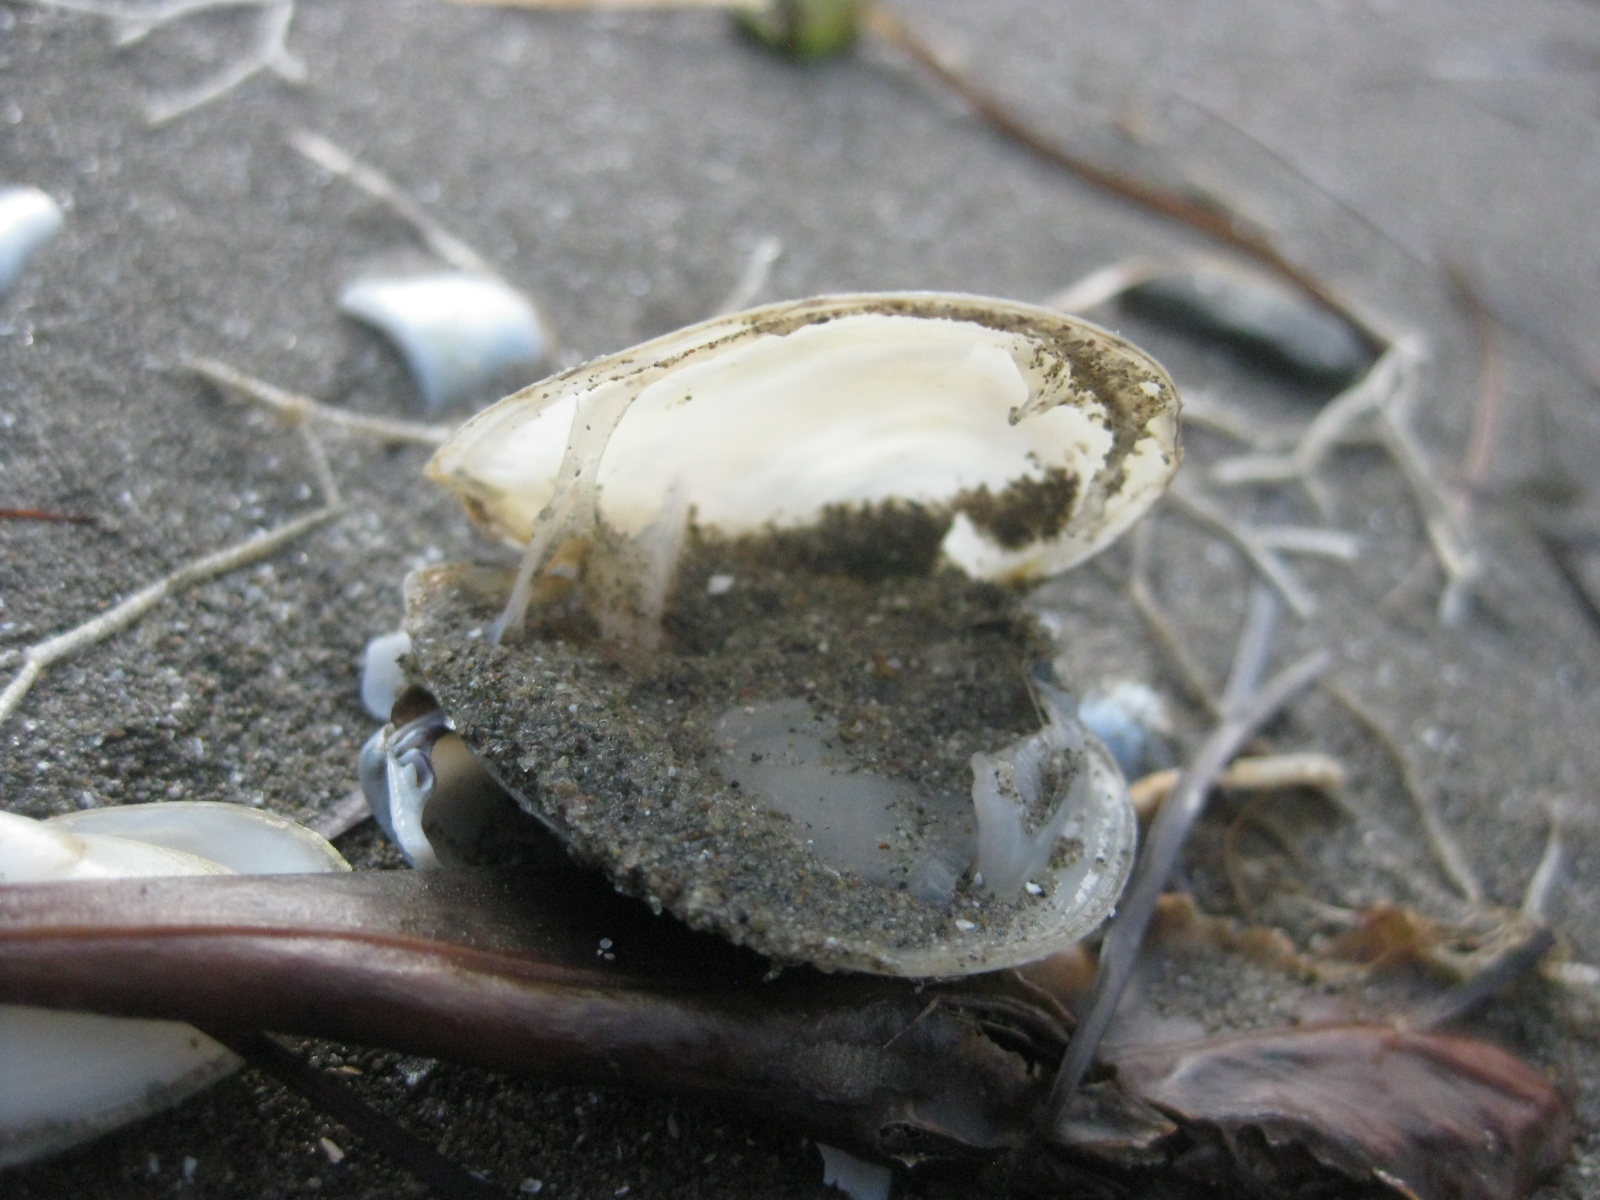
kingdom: Animalia
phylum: Mollusca
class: Bivalvia
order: Cardiida
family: Tellinidae
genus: Macomona
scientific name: Macomona liliana
